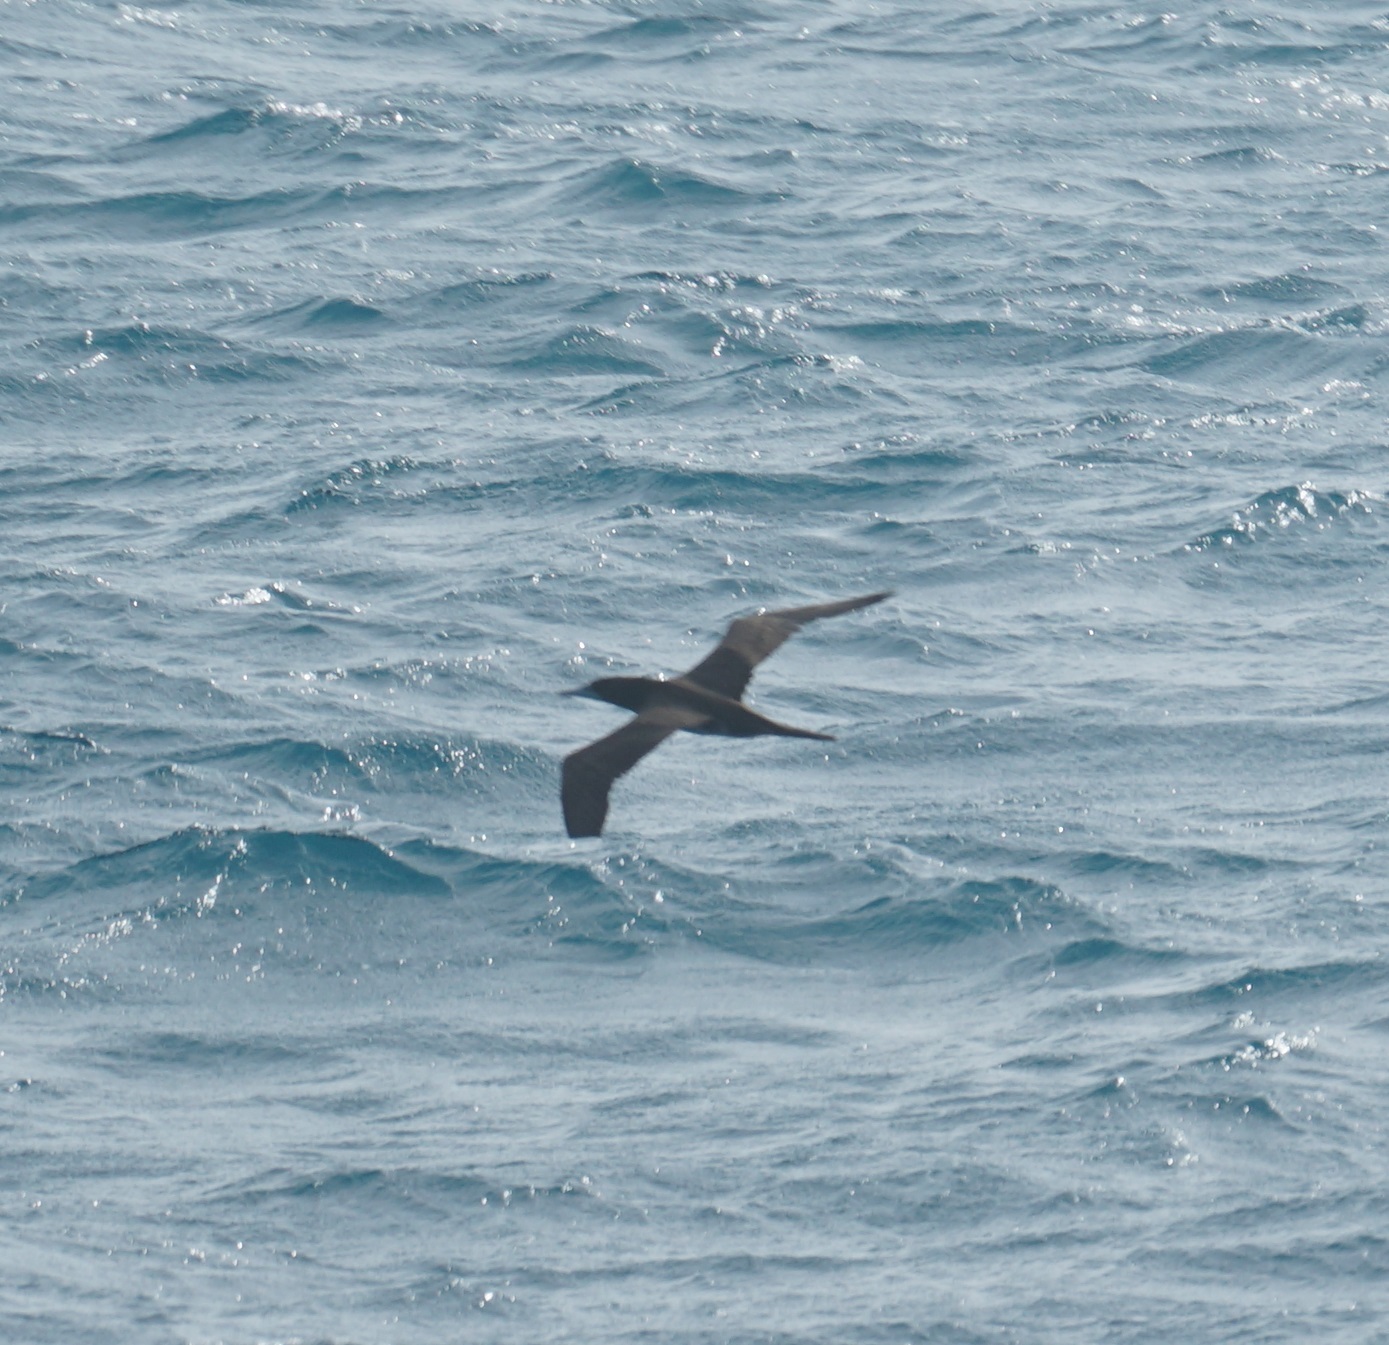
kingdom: Animalia
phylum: Chordata
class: Aves
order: Suliformes
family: Sulidae
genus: Sula
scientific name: Sula leucogaster
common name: Brown booby
